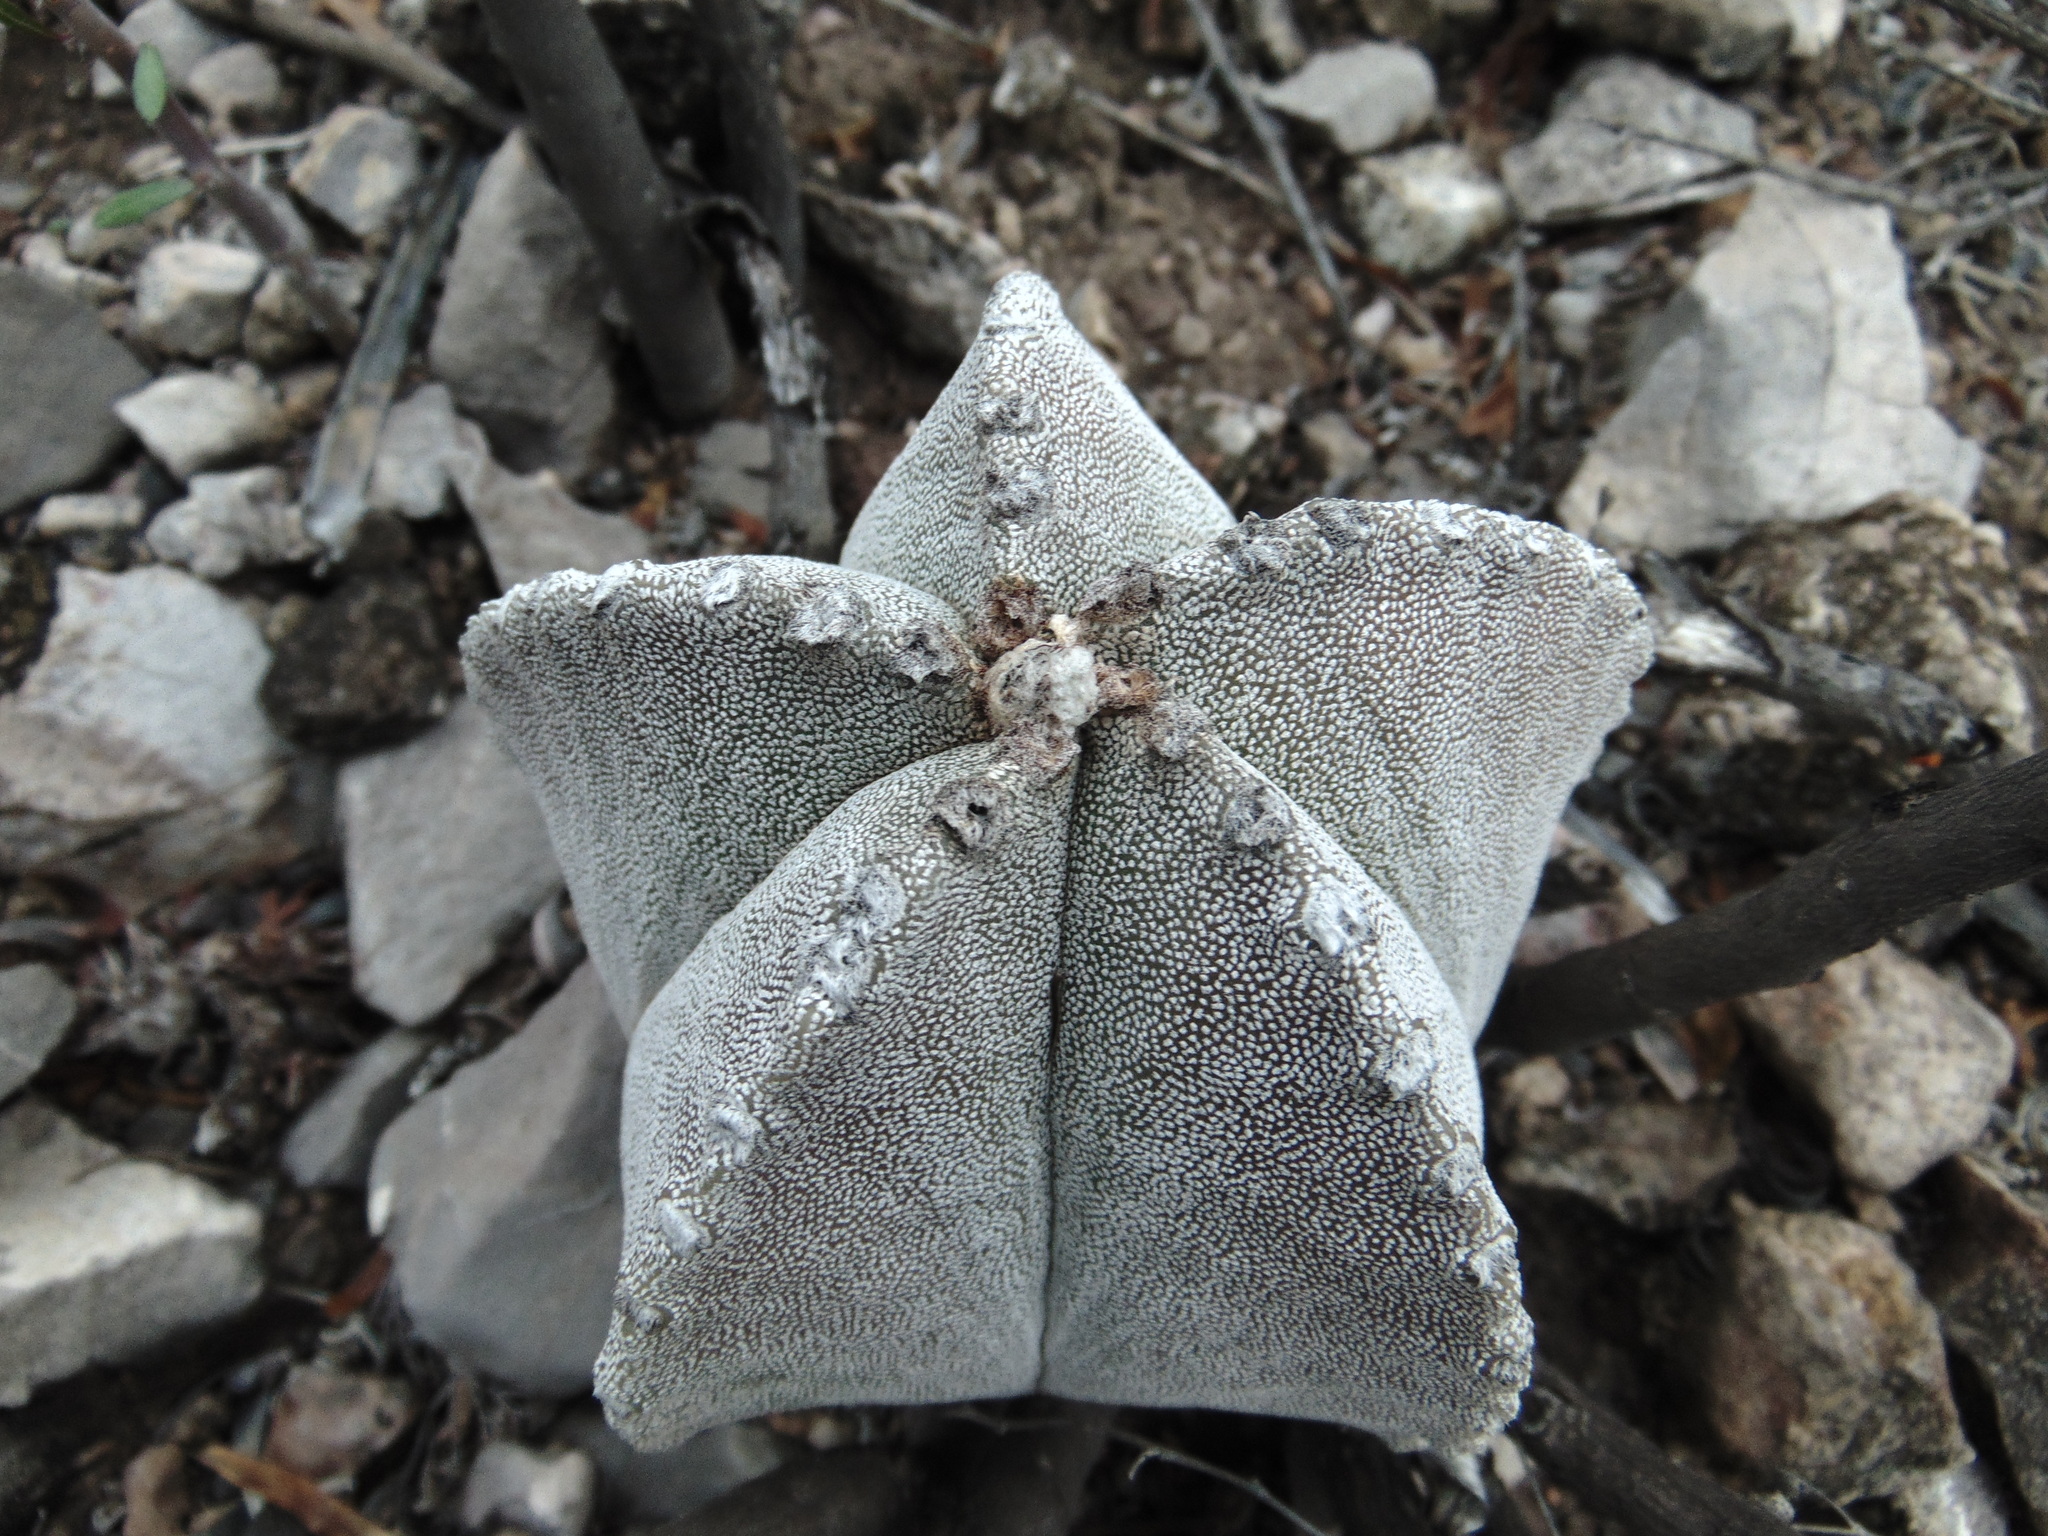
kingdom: Plantae
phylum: Tracheophyta
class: Magnoliopsida
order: Caryophyllales
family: Cactaceae
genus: Astrophytum
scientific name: Astrophytum myriostigma
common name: Bishop's-cap
